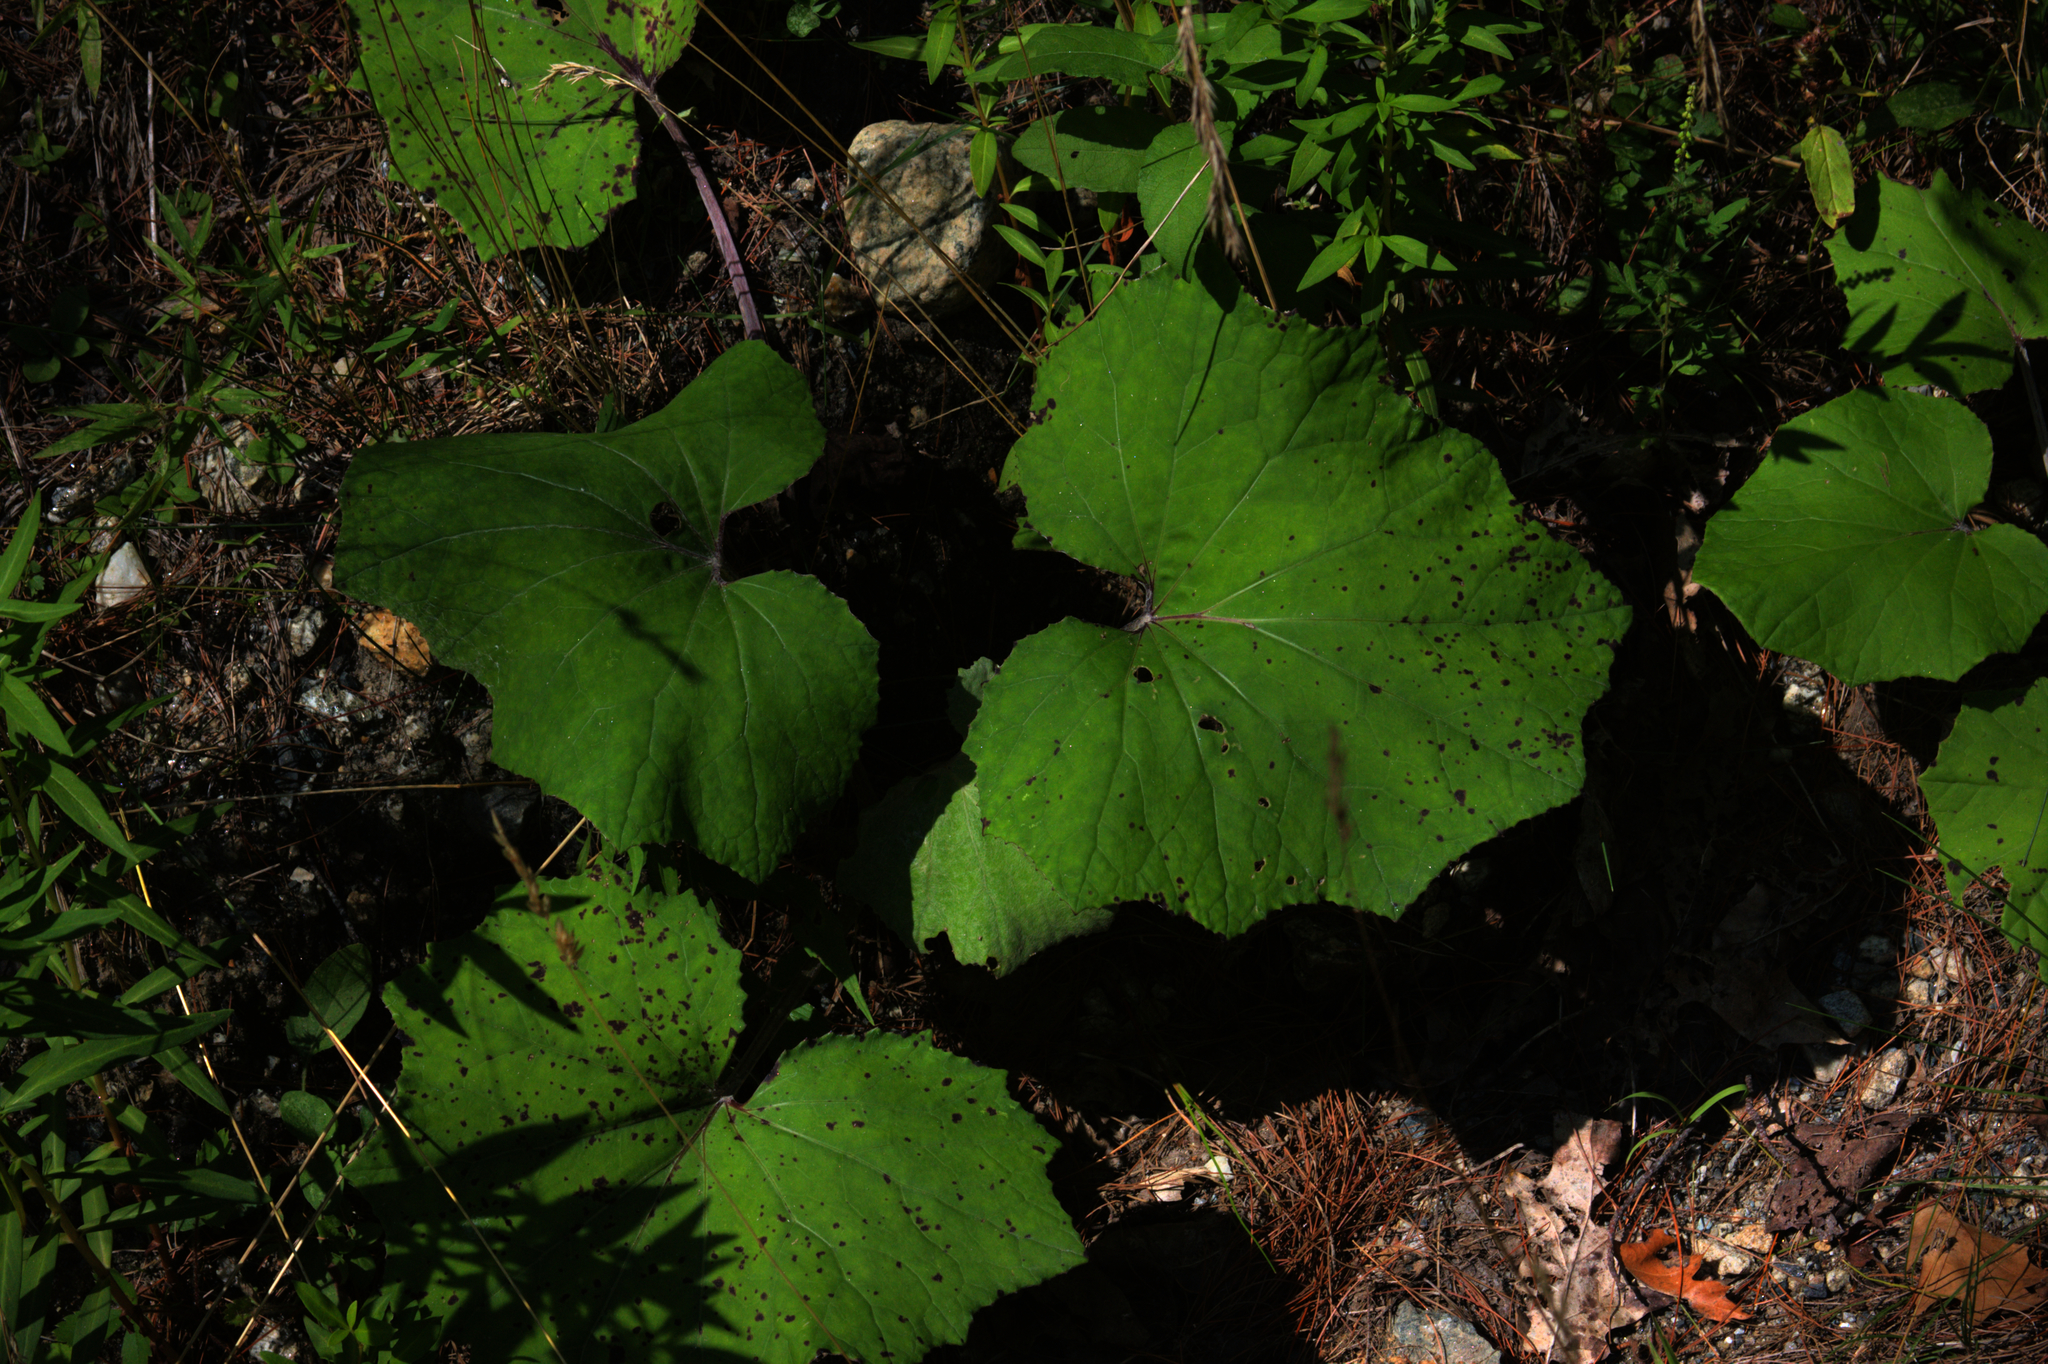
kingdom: Plantae
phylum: Tracheophyta
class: Magnoliopsida
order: Asterales
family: Asteraceae
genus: Tussilago
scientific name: Tussilago farfara
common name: Coltsfoot
